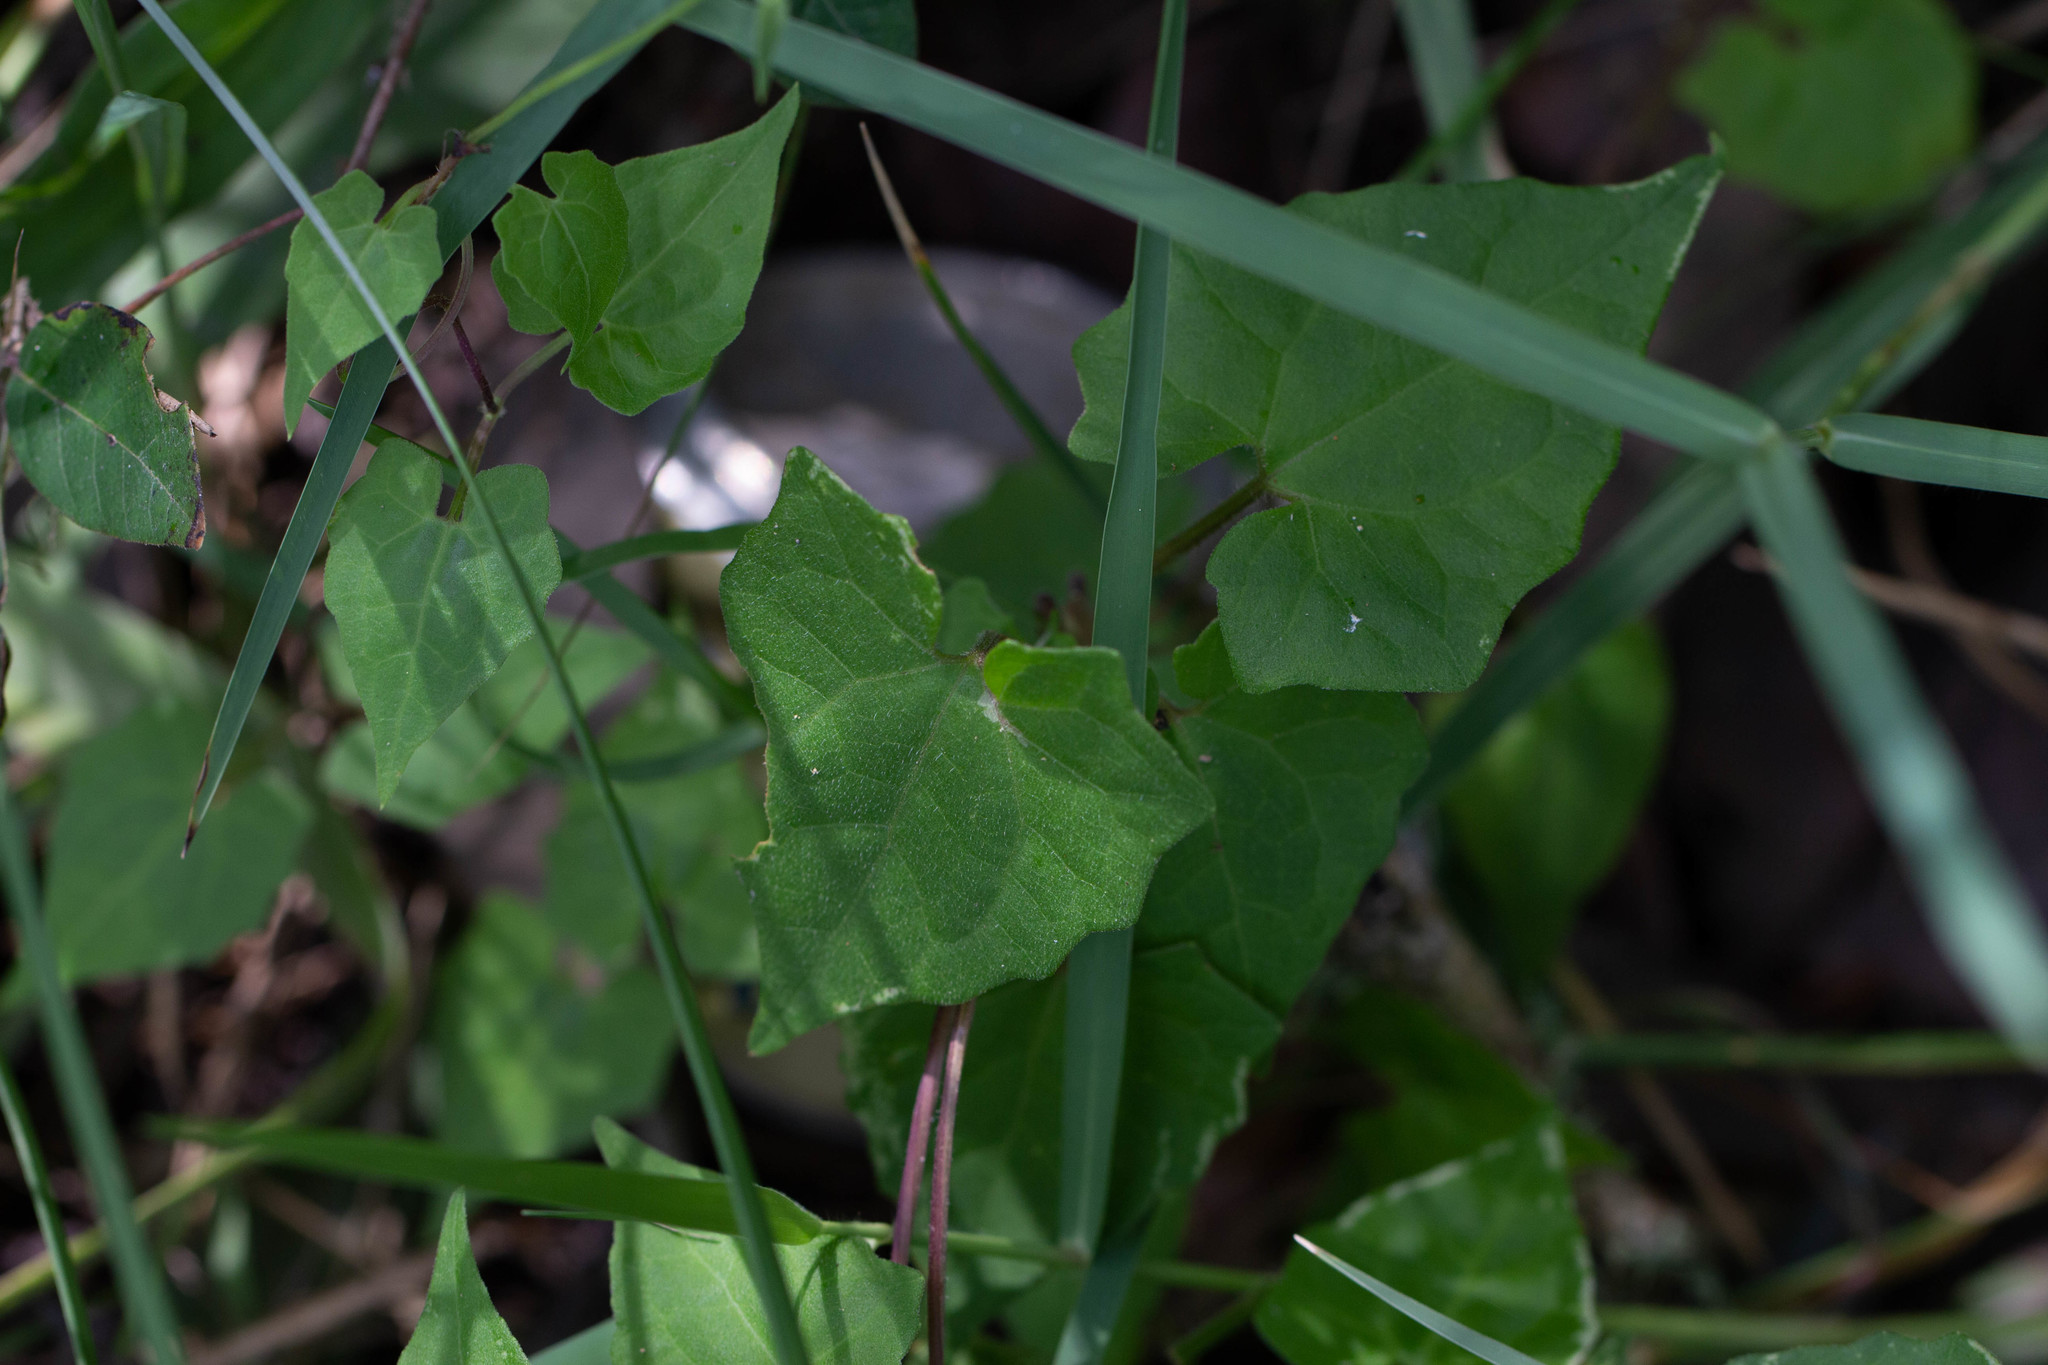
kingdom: Plantae
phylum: Tracheophyta
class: Magnoliopsida
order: Asterales
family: Asteraceae
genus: Mikania
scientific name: Mikania scandens
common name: Climbing hempvine
